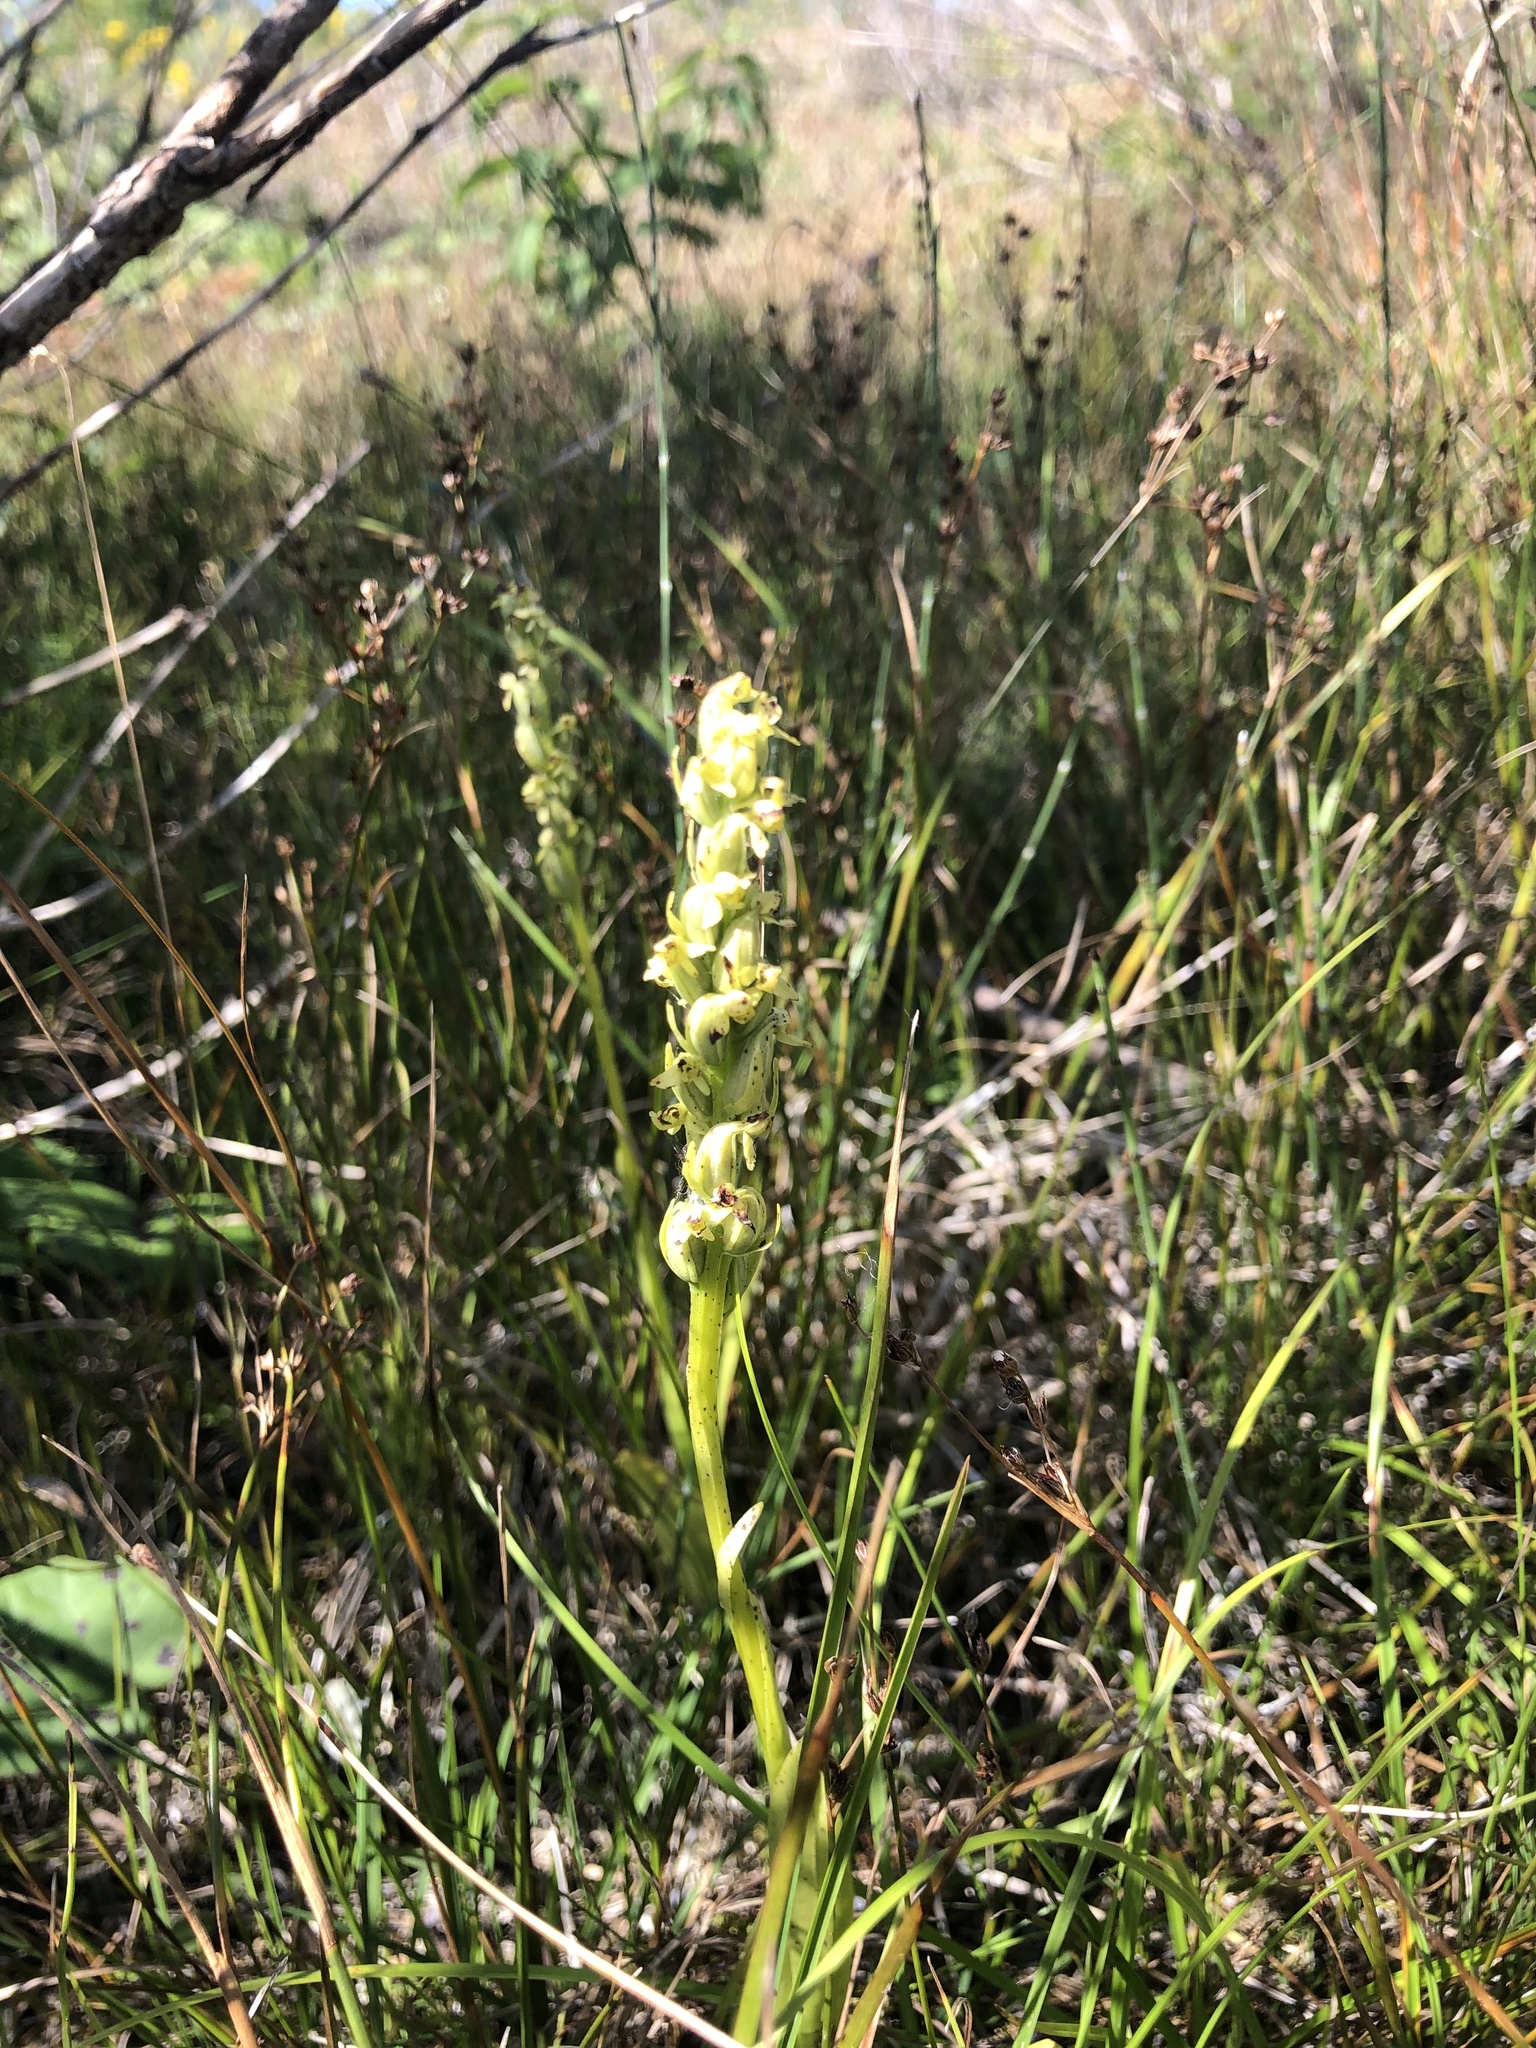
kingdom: Plantae
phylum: Tracheophyta
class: Liliopsida
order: Asparagales
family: Orchidaceae
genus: Platanthera
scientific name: Platanthera aquilonis
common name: Northern green orchid
